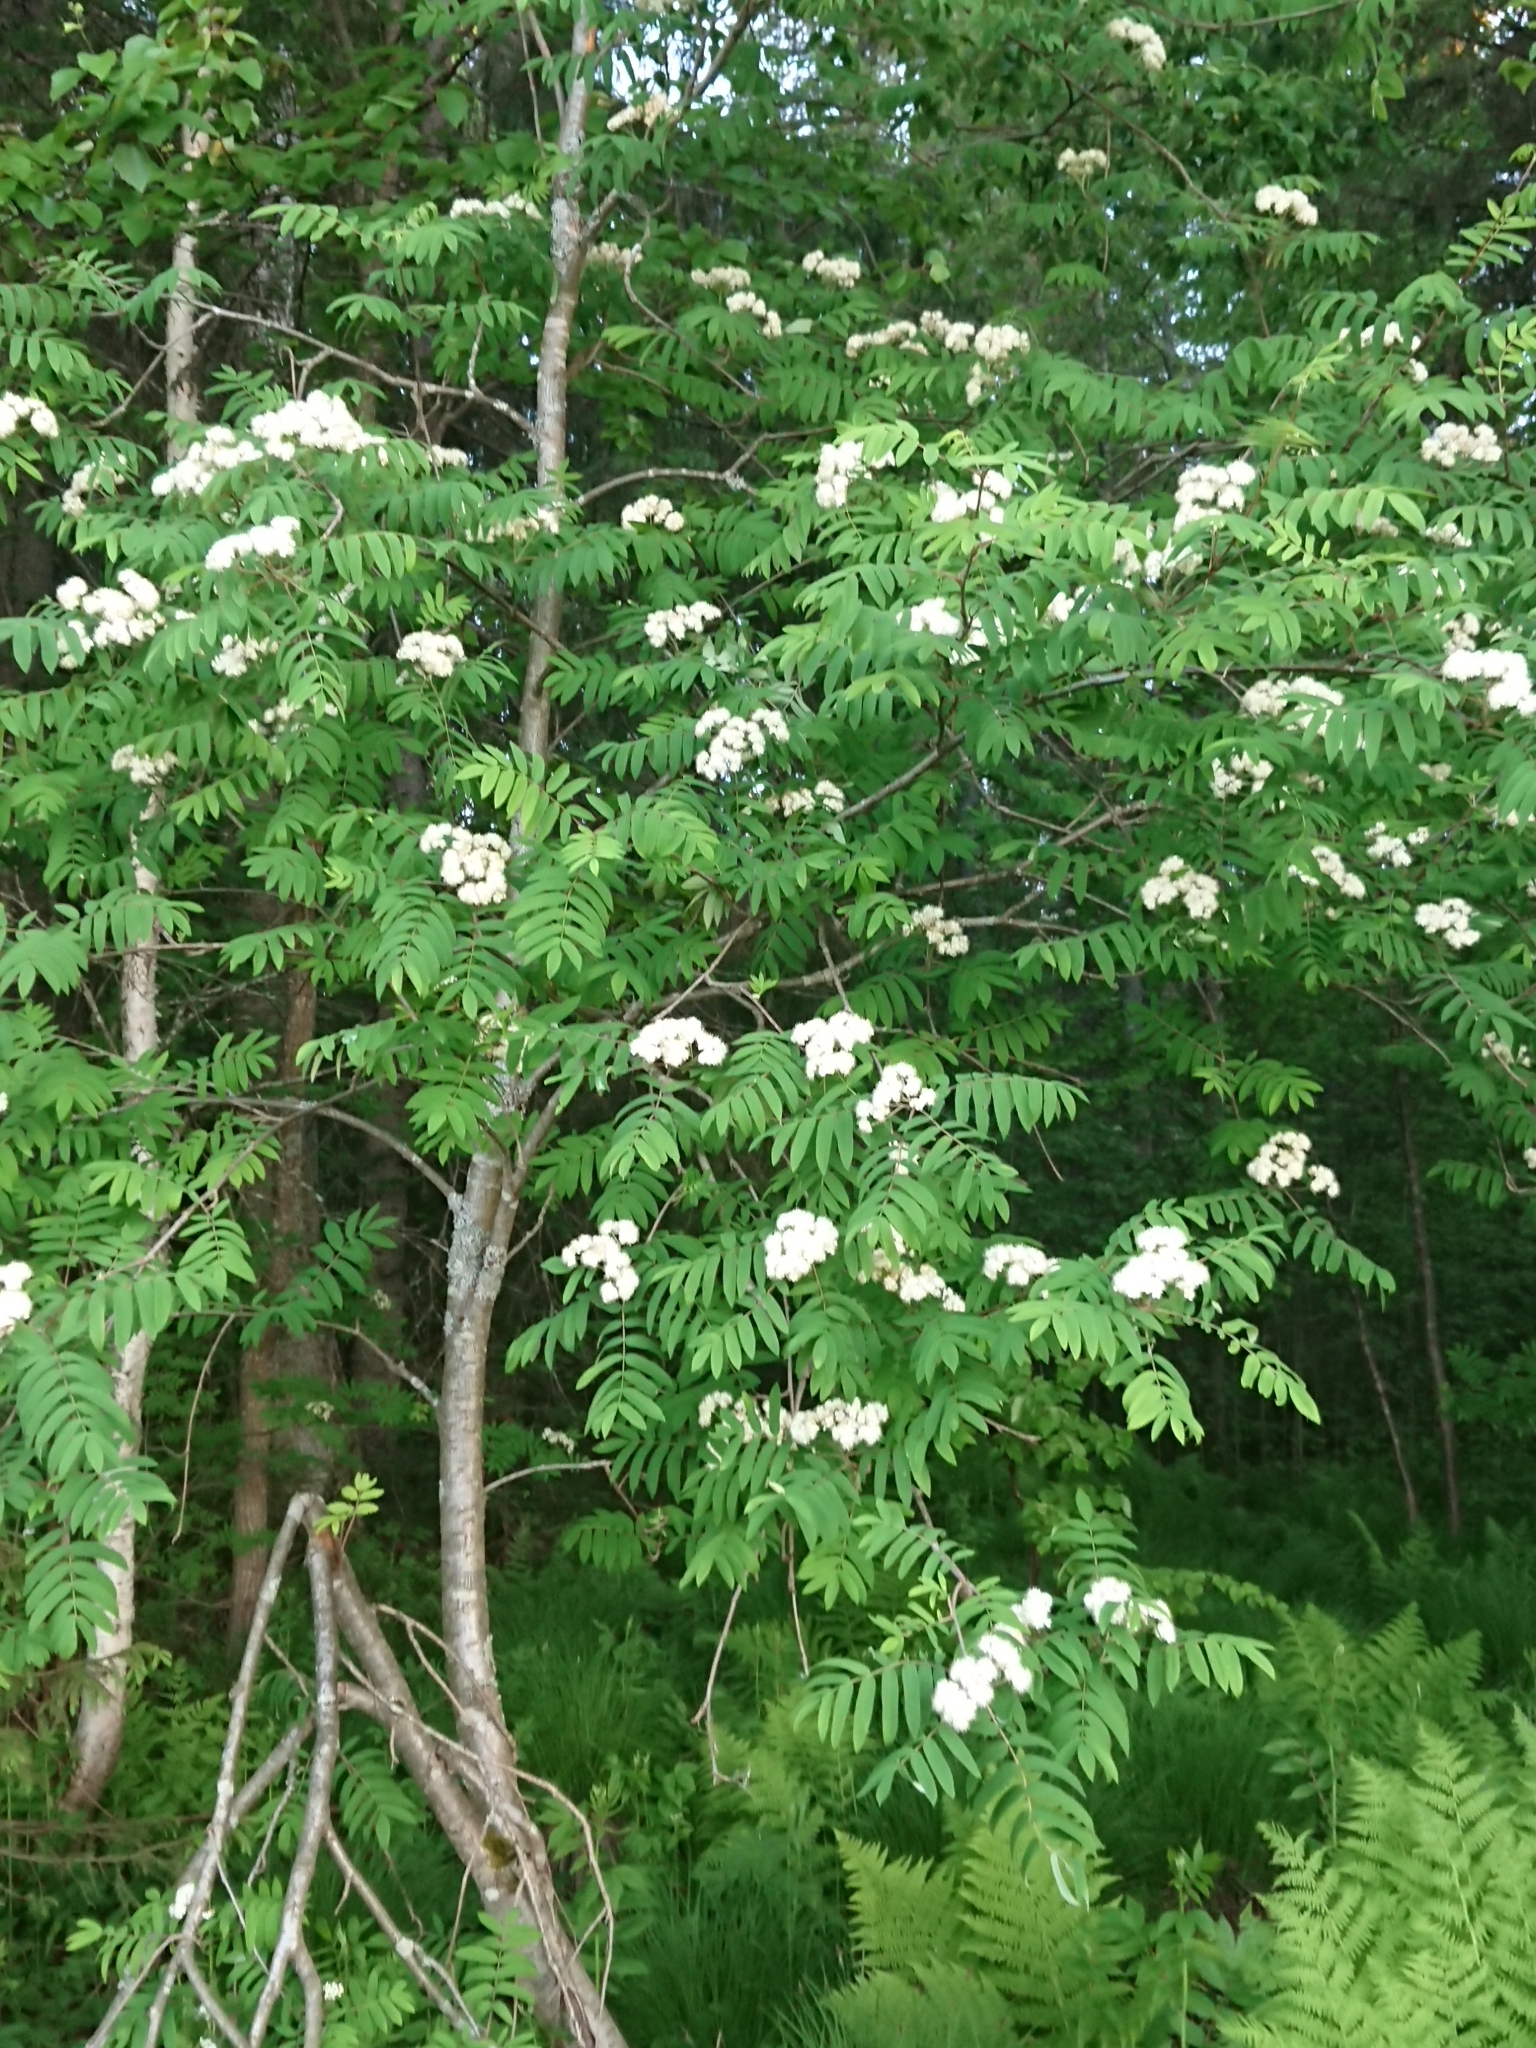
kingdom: Plantae
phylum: Tracheophyta
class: Magnoliopsida
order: Rosales
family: Rosaceae
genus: Sorbus
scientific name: Sorbus aucuparia
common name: Rowan
